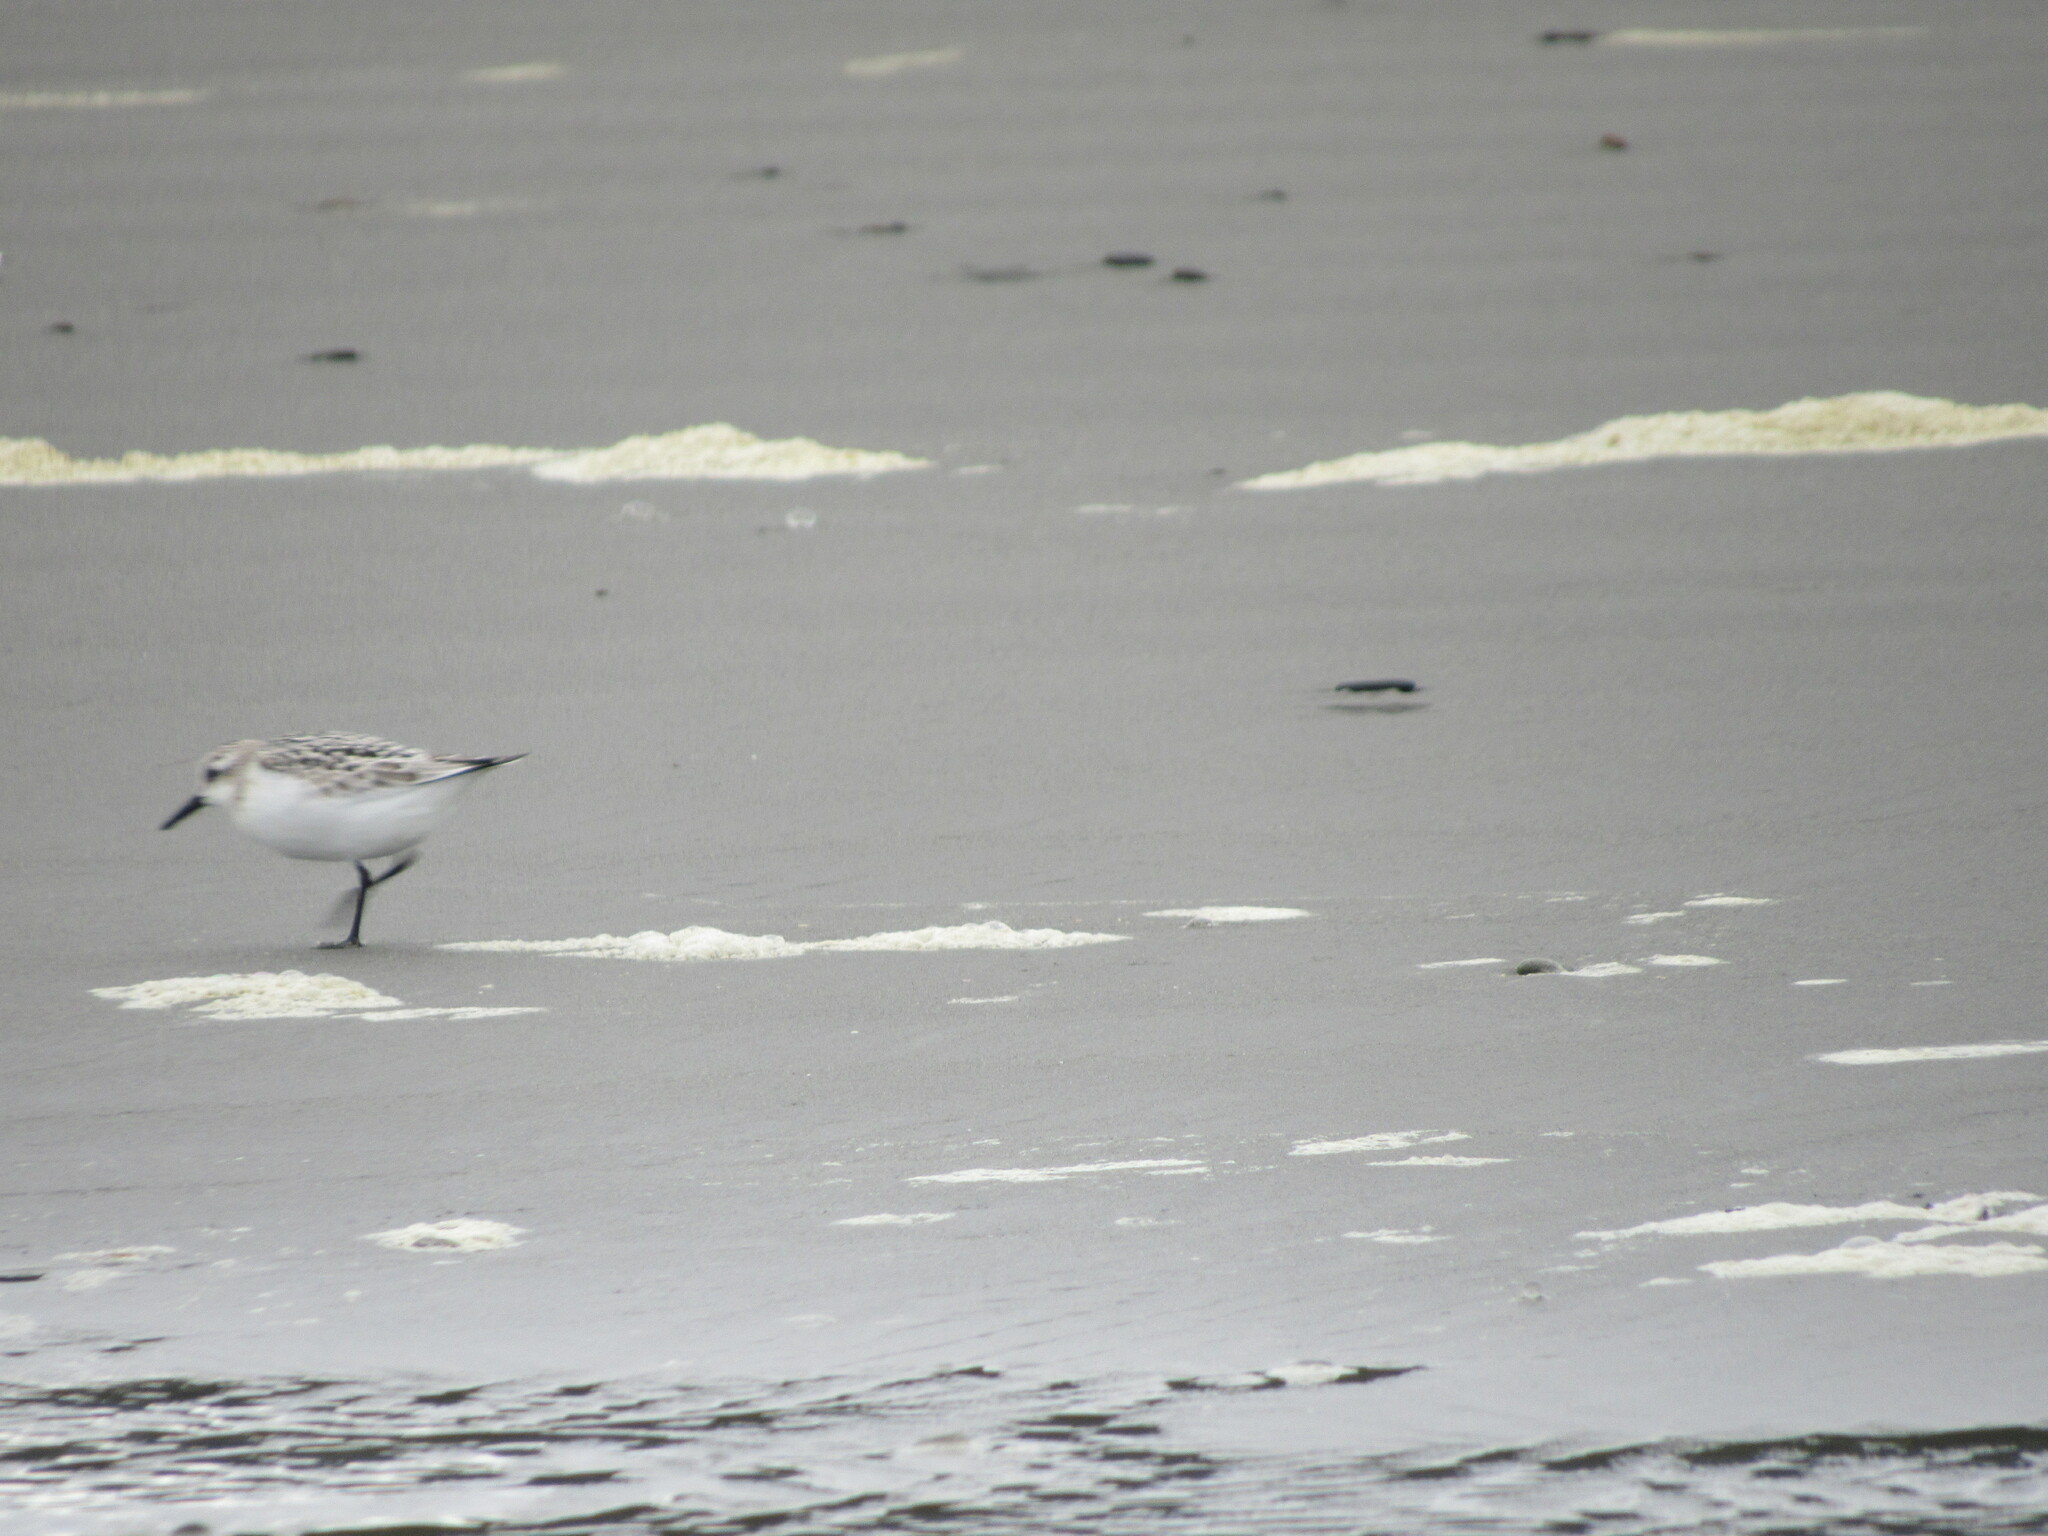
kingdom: Animalia
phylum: Chordata
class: Aves
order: Charadriiformes
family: Scolopacidae
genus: Calidris
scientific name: Calidris alba
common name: Sanderling
